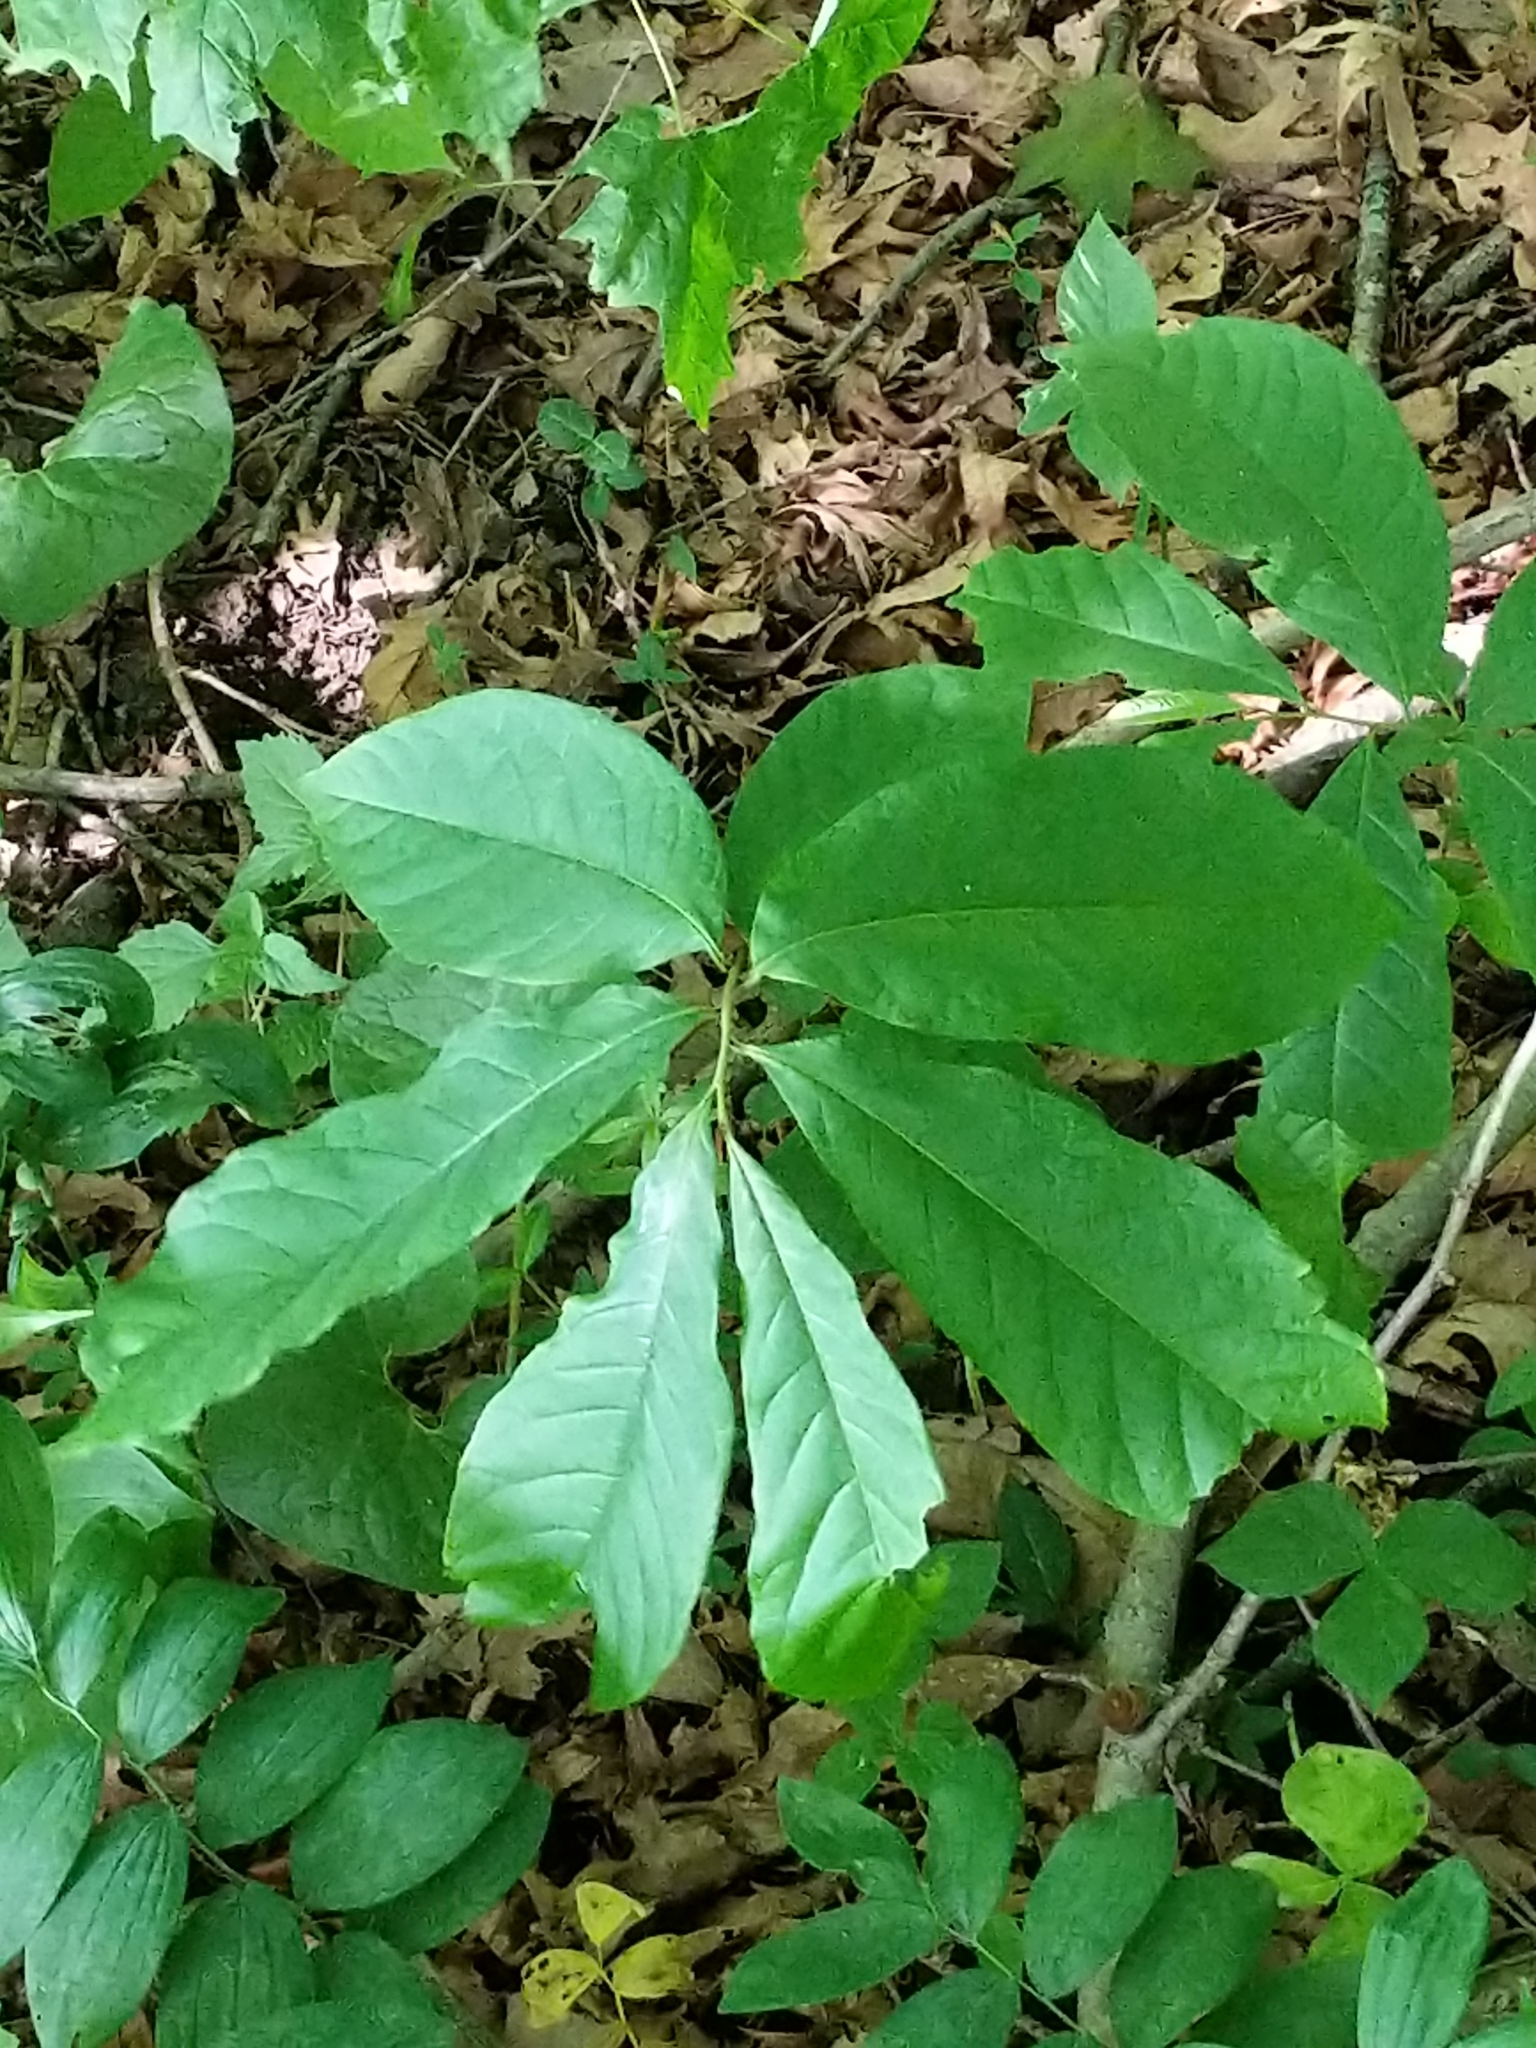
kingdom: Plantae
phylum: Tracheophyta
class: Magnoliopsida
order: Magnoliales
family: Annonaceae
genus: Asimina
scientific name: Asimina triloba
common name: Dog-banana
